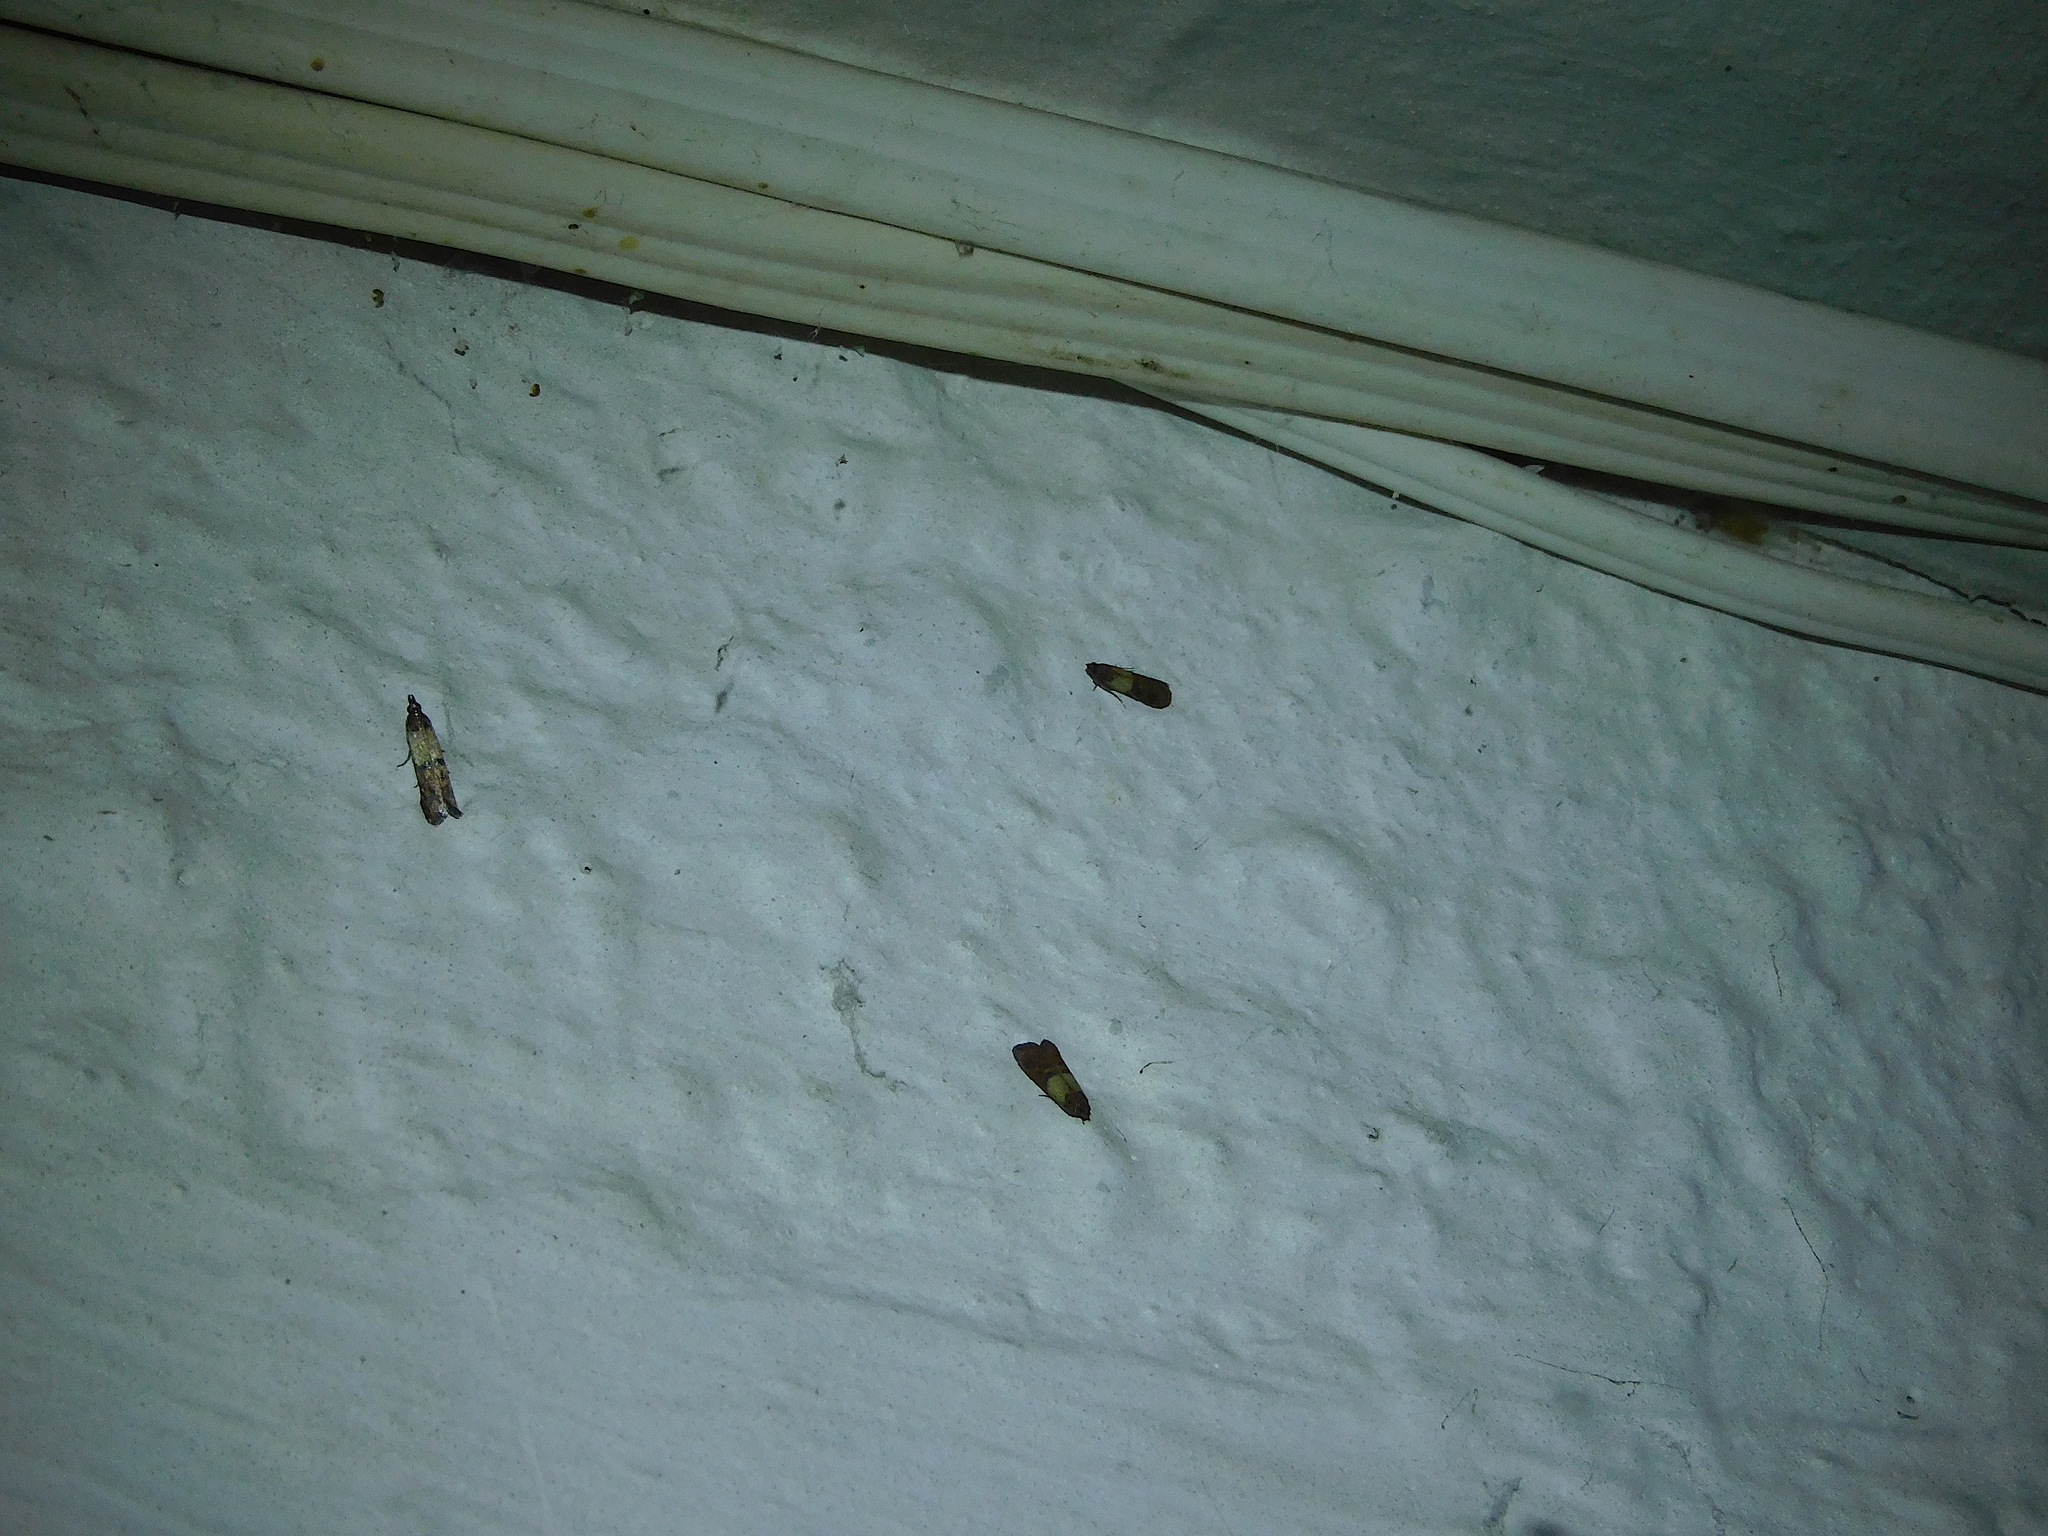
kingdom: Animalia
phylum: Arthropoda
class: Insecta
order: Lepidoptera
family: Pyralidae
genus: Plodia
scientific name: Plodia interpunctella
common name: Indian meal moth
